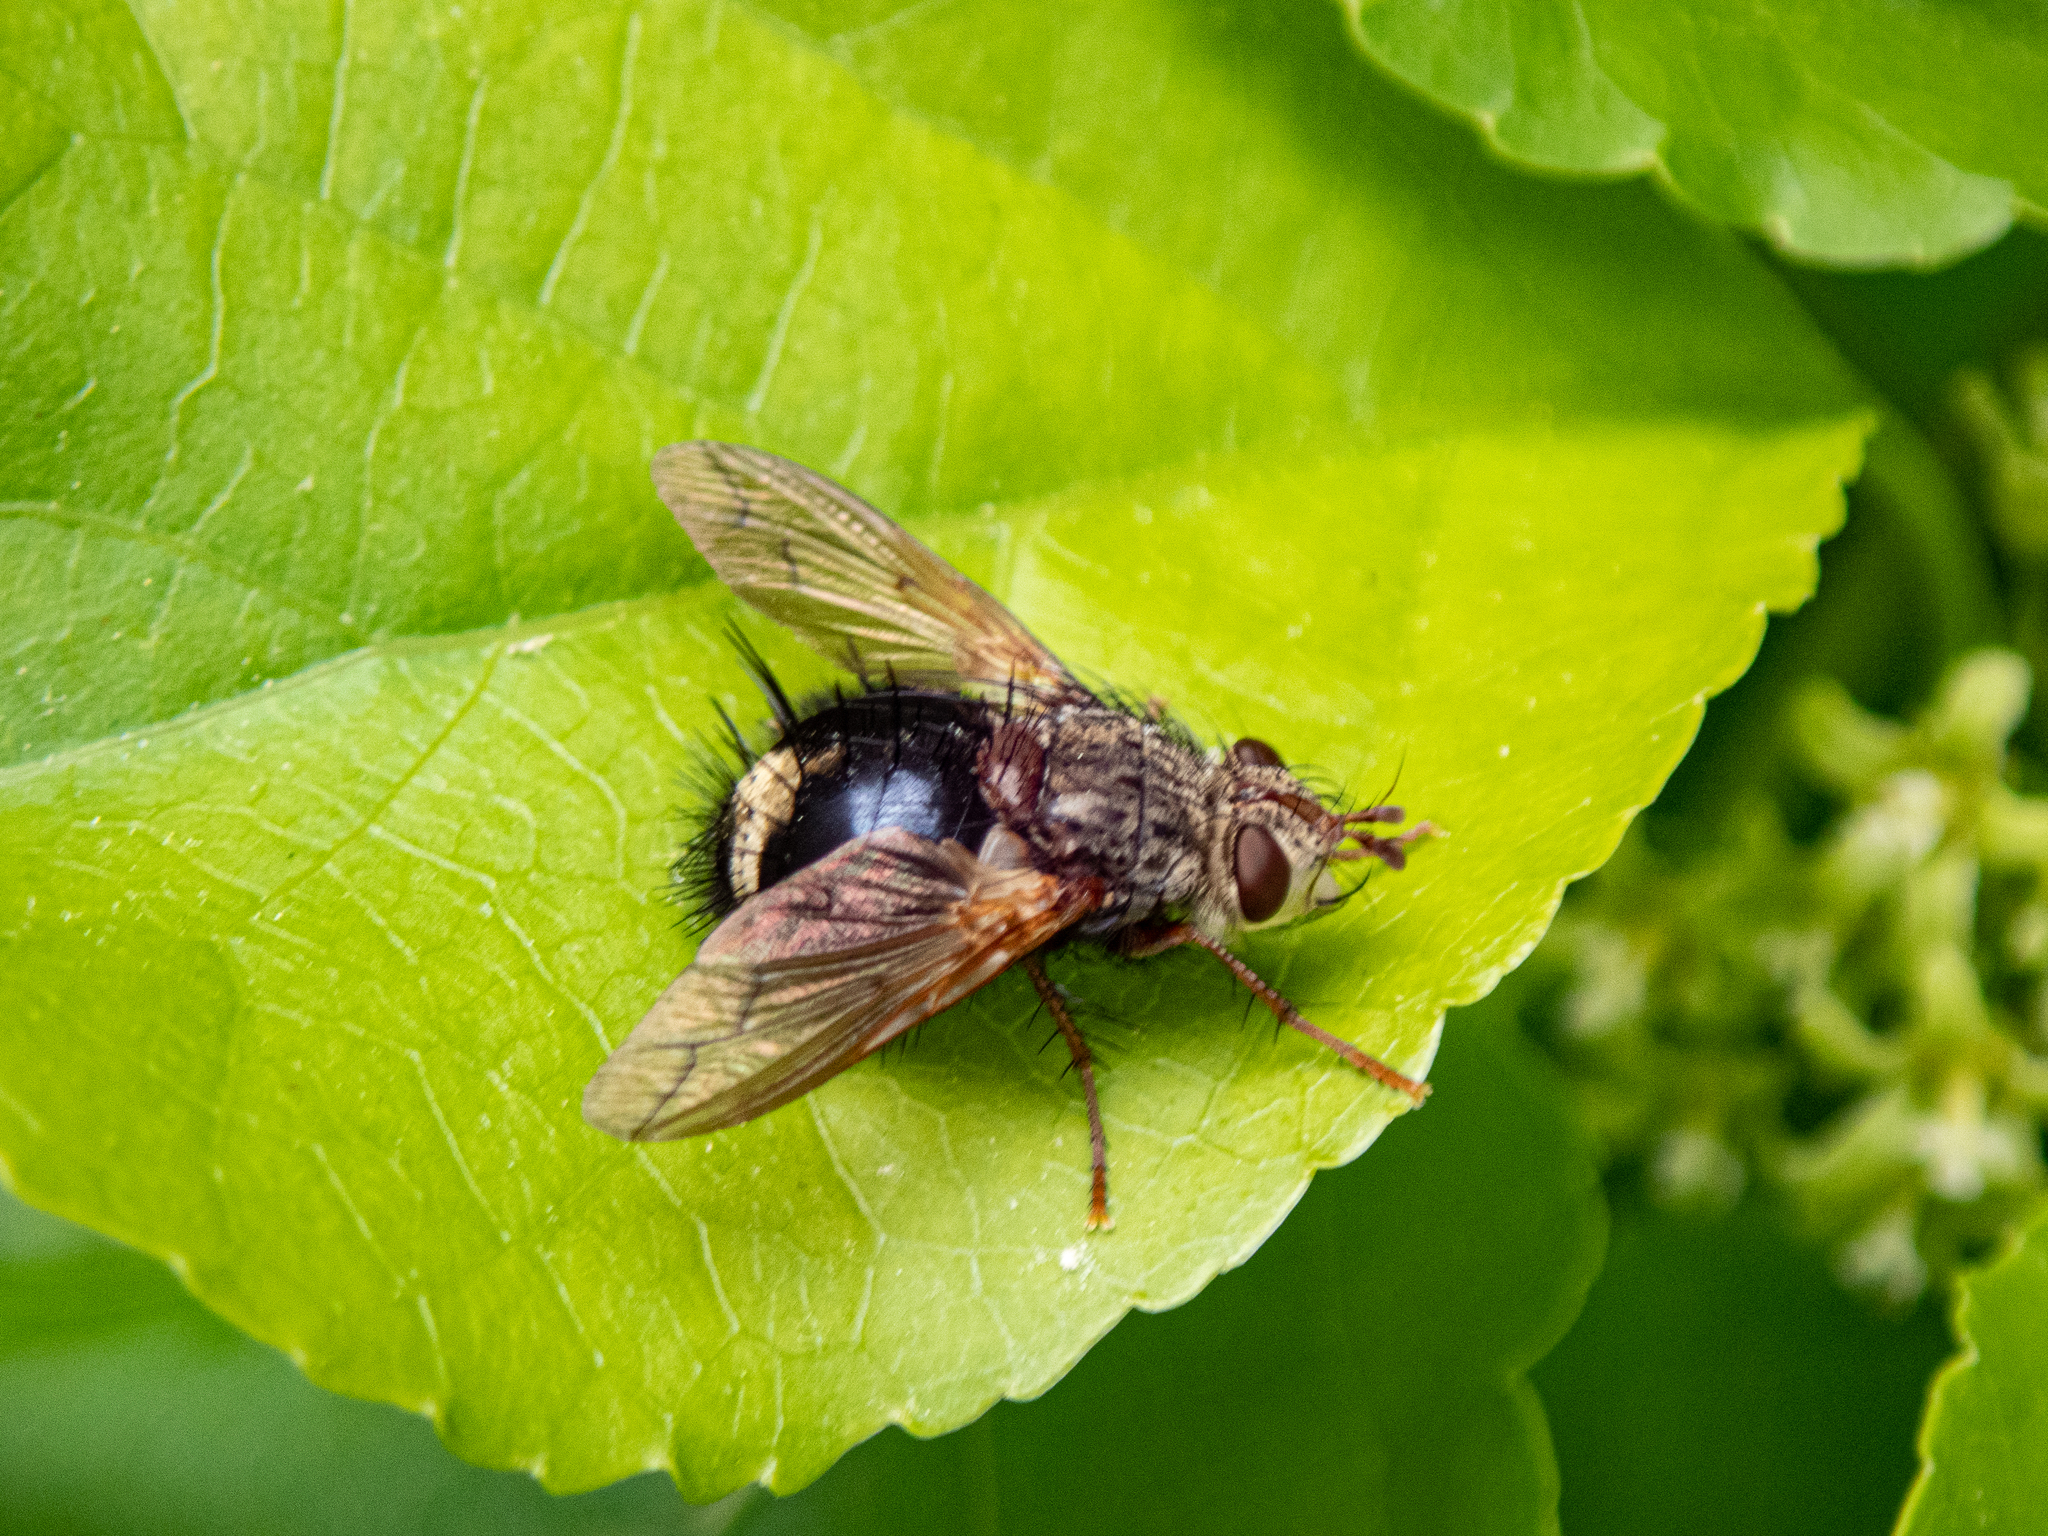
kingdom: Animalia
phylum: Arthropoda
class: Insecta
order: Diptera
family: Tachinidae
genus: Epalpus
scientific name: Epalpus signifer
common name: Early tachinid fly
